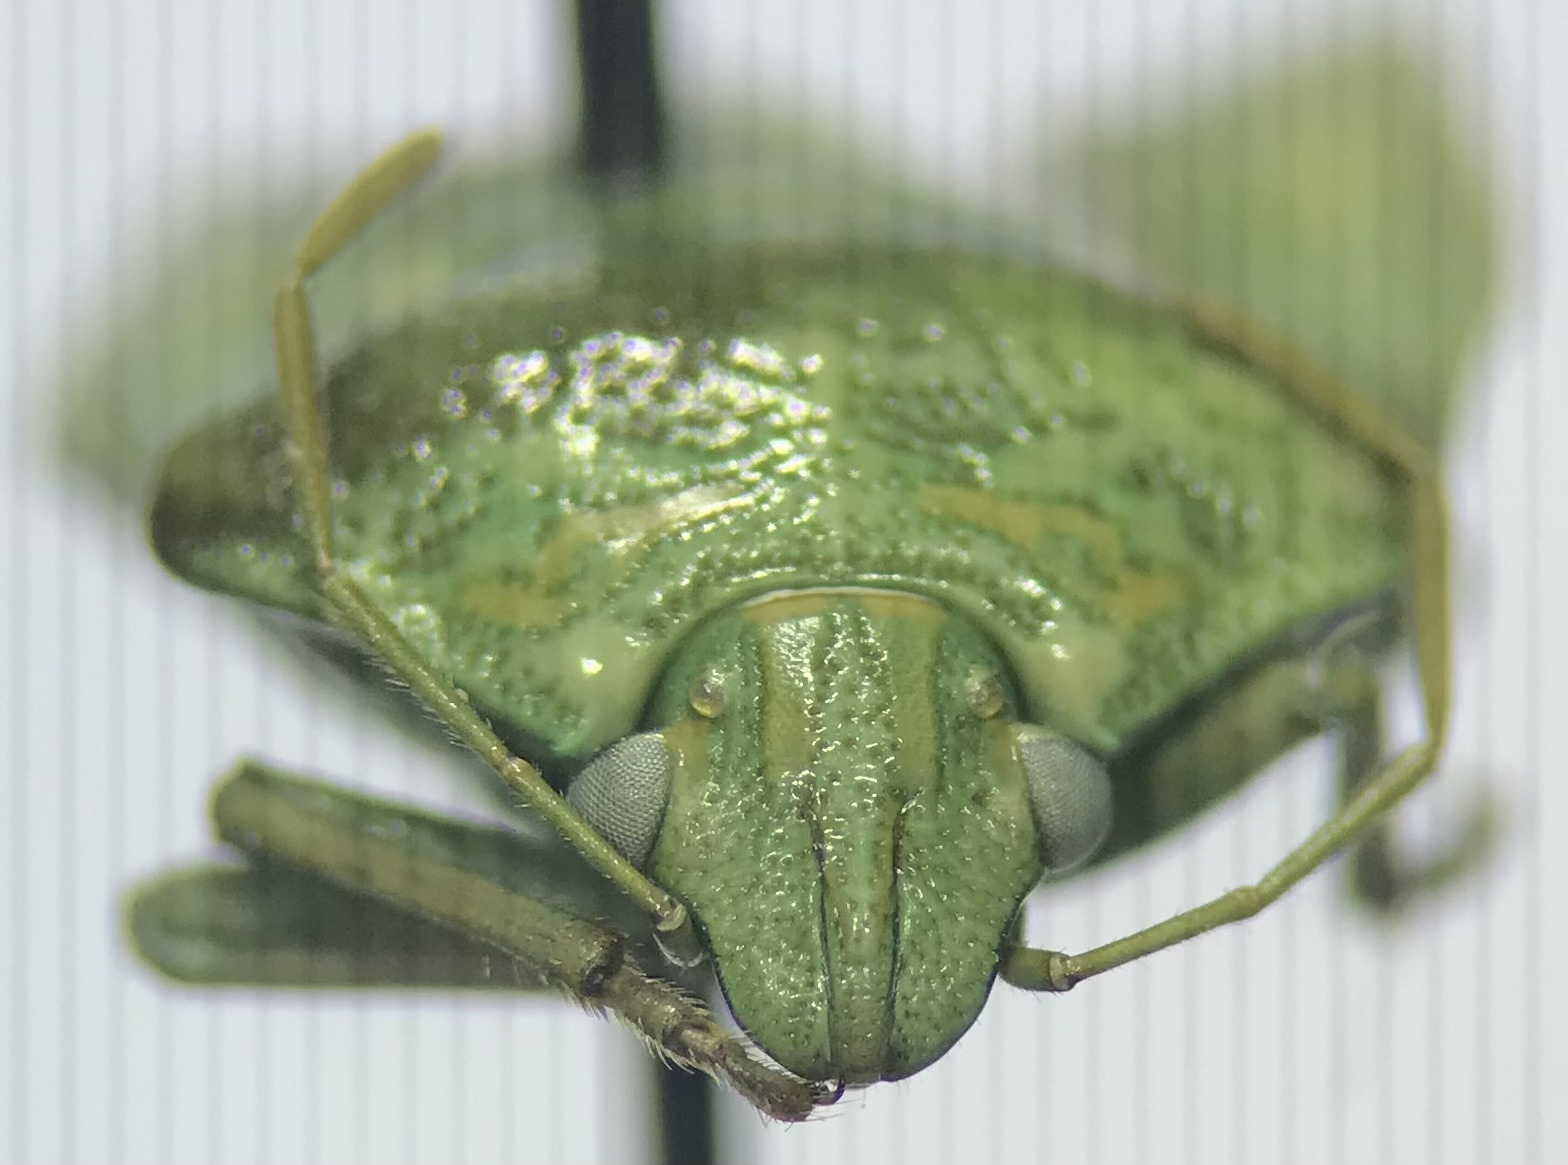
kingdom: Animalia
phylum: Arthropoda
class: Insecta
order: Hemiptera
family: Pentatomidae
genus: Banasa
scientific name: Banasa euchlora
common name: Cedar berry bug
